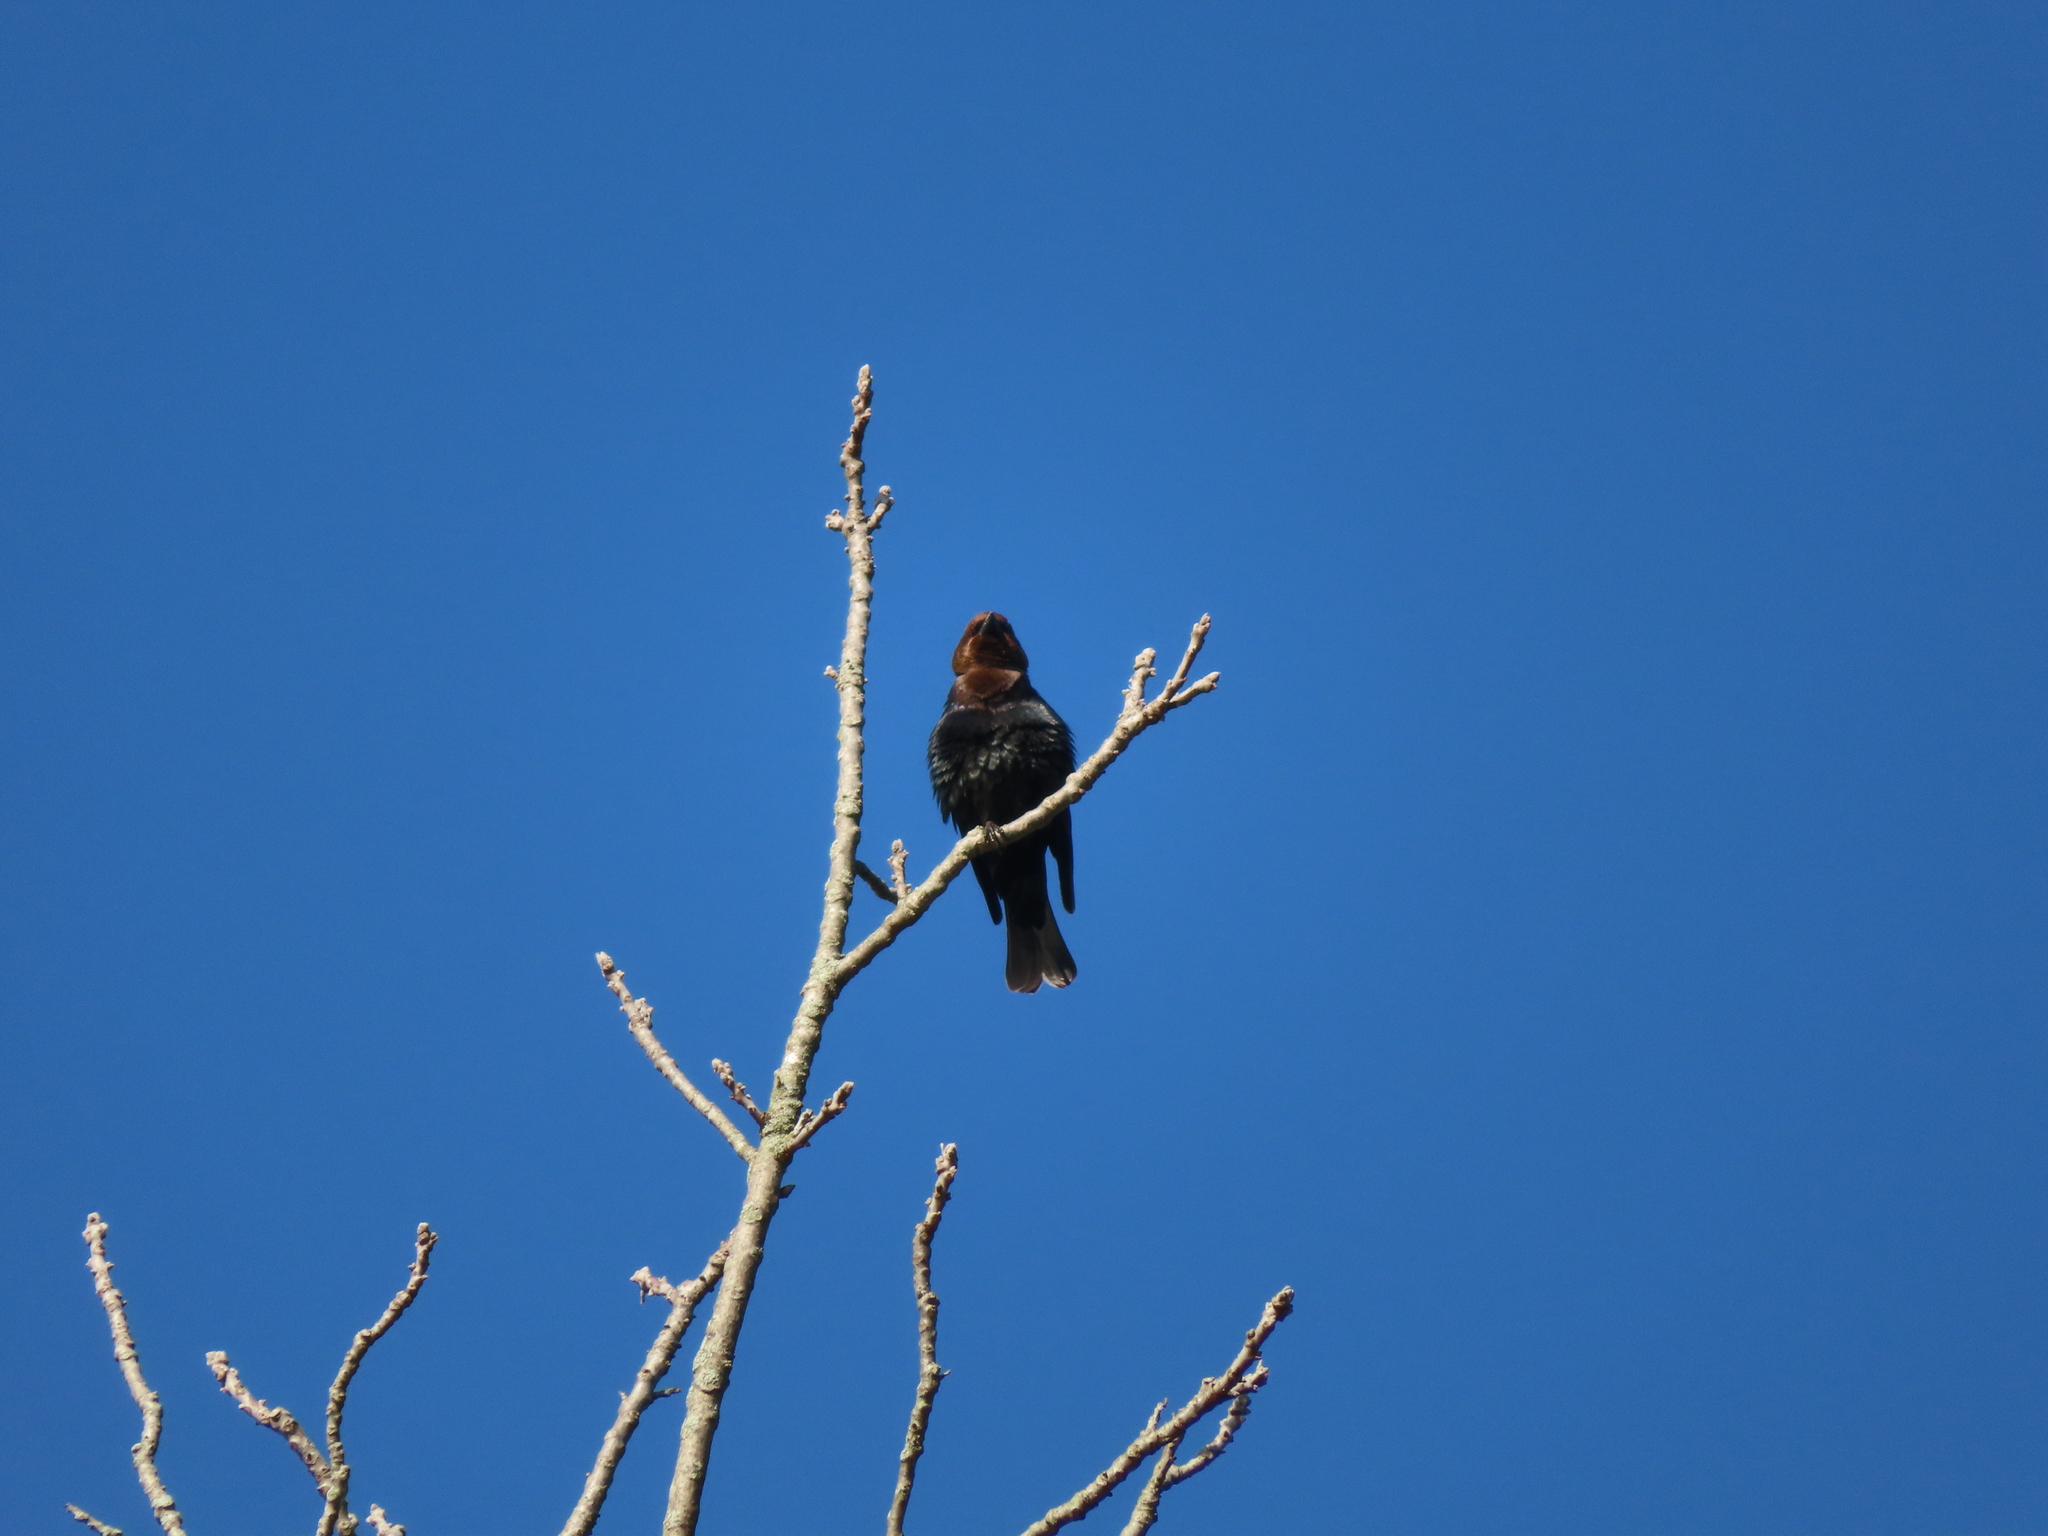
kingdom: Animalia
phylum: Chordata
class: Aves
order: Passeriformes
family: Icteridae
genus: Molothrus
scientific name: Molothrus ater
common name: Brown-headed cowbird
